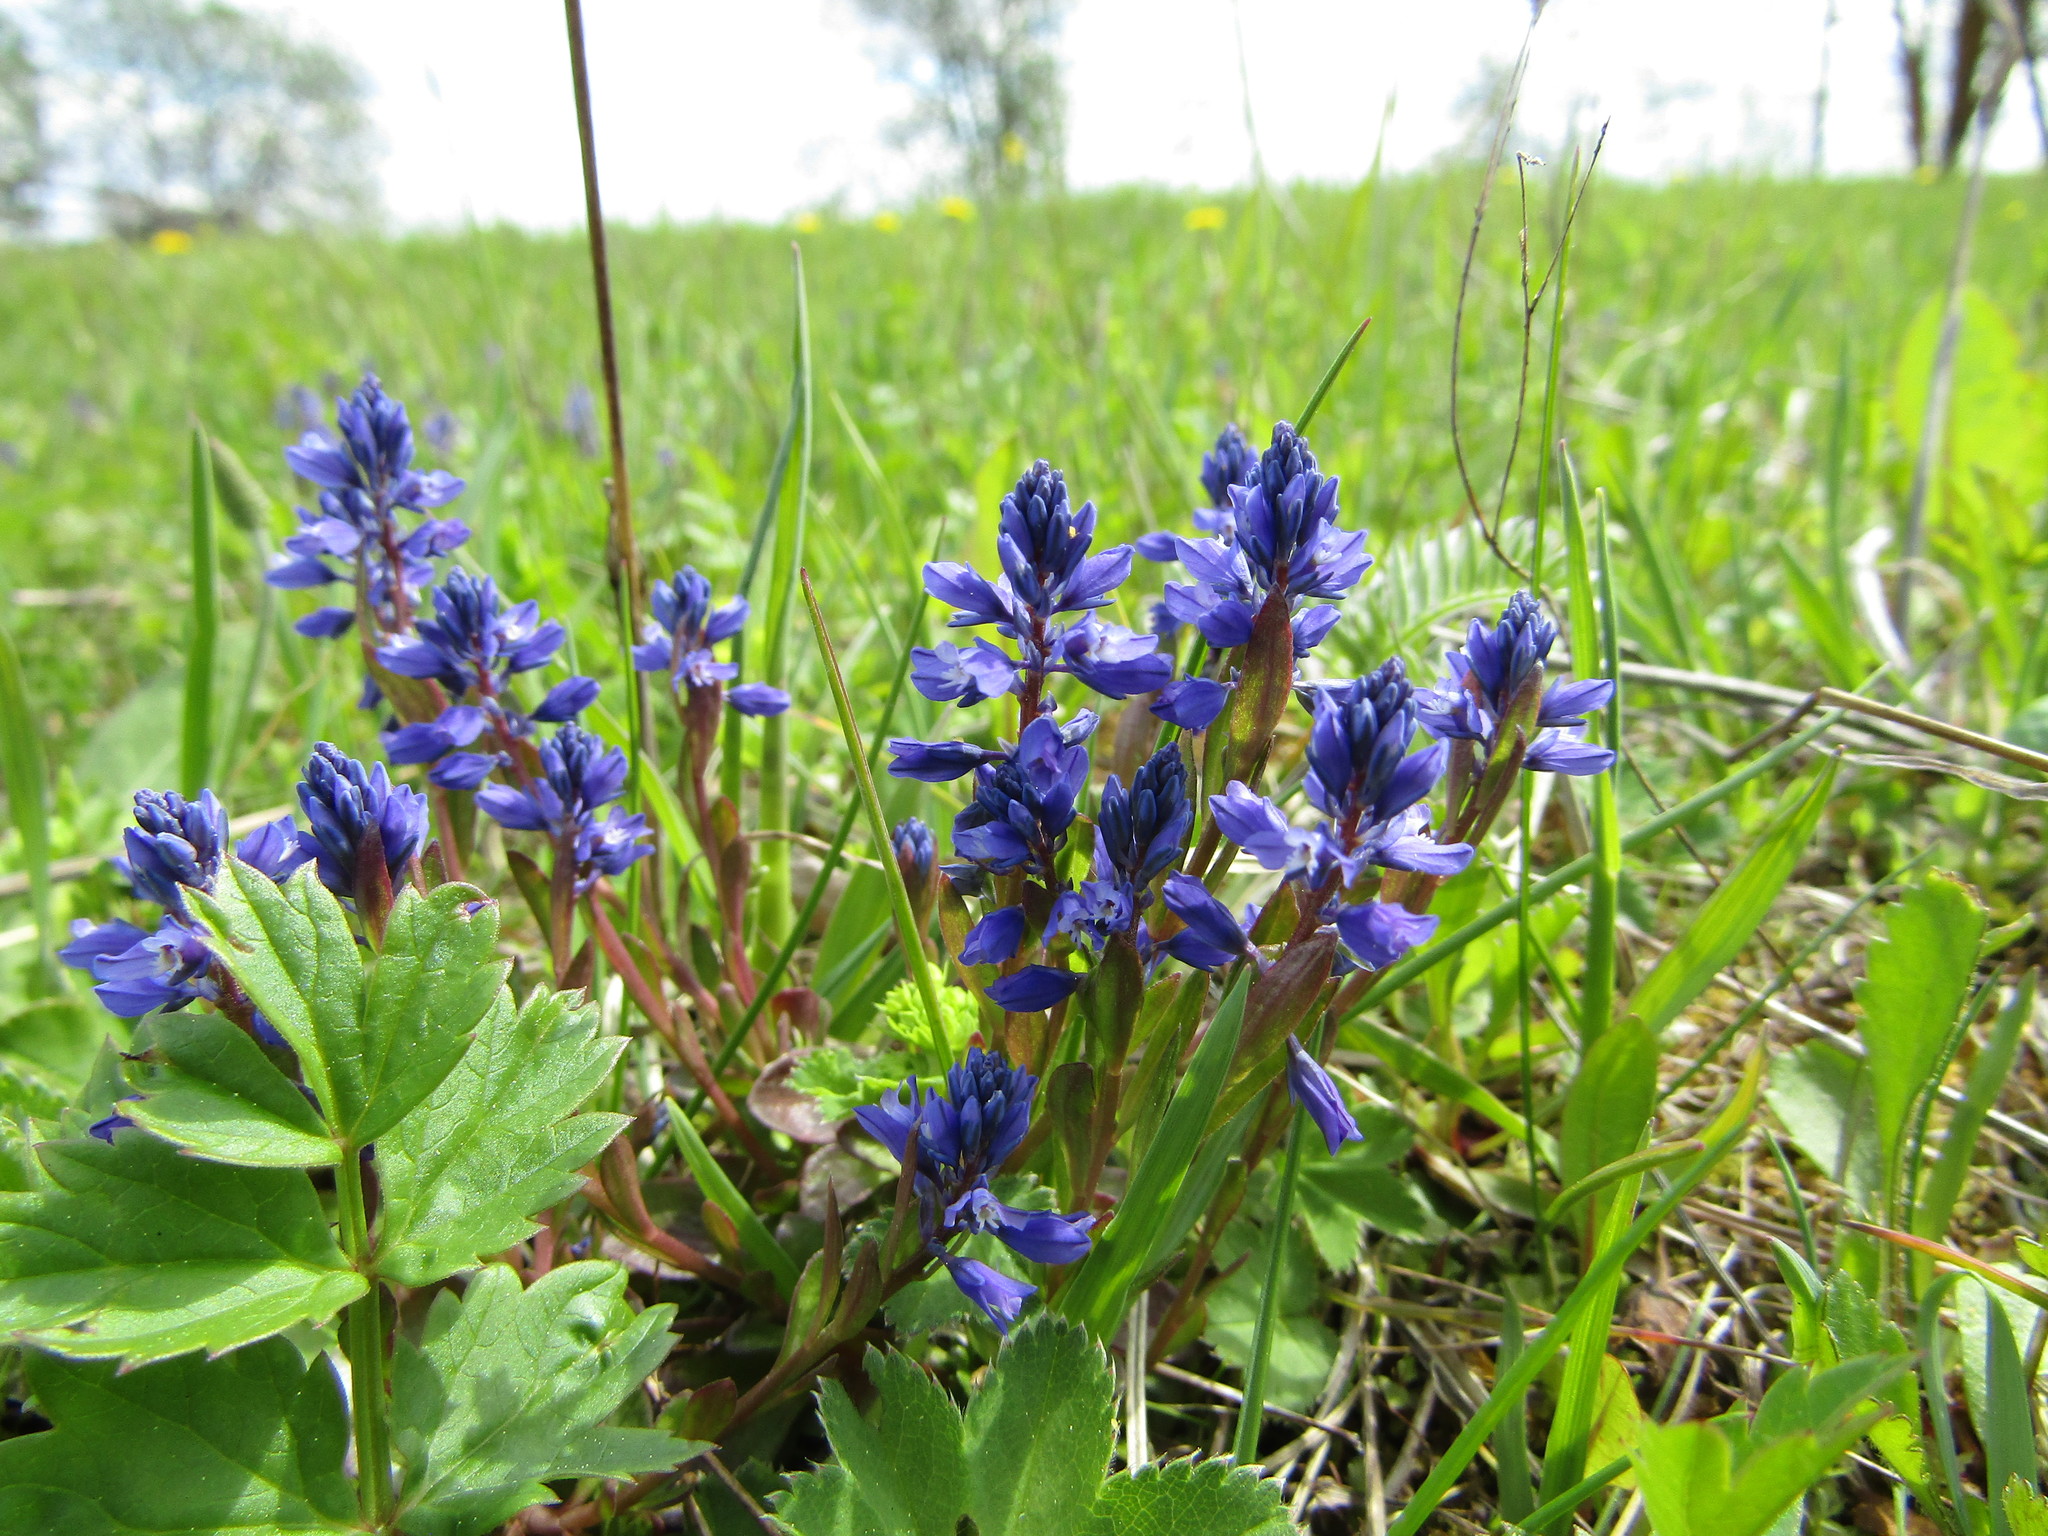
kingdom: Plantae
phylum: Tracheophyta
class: Magnoliopsida
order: Fabales
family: Polygalaceae
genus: Polygala
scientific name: Polygala amarella
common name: Dwarf milkwort
